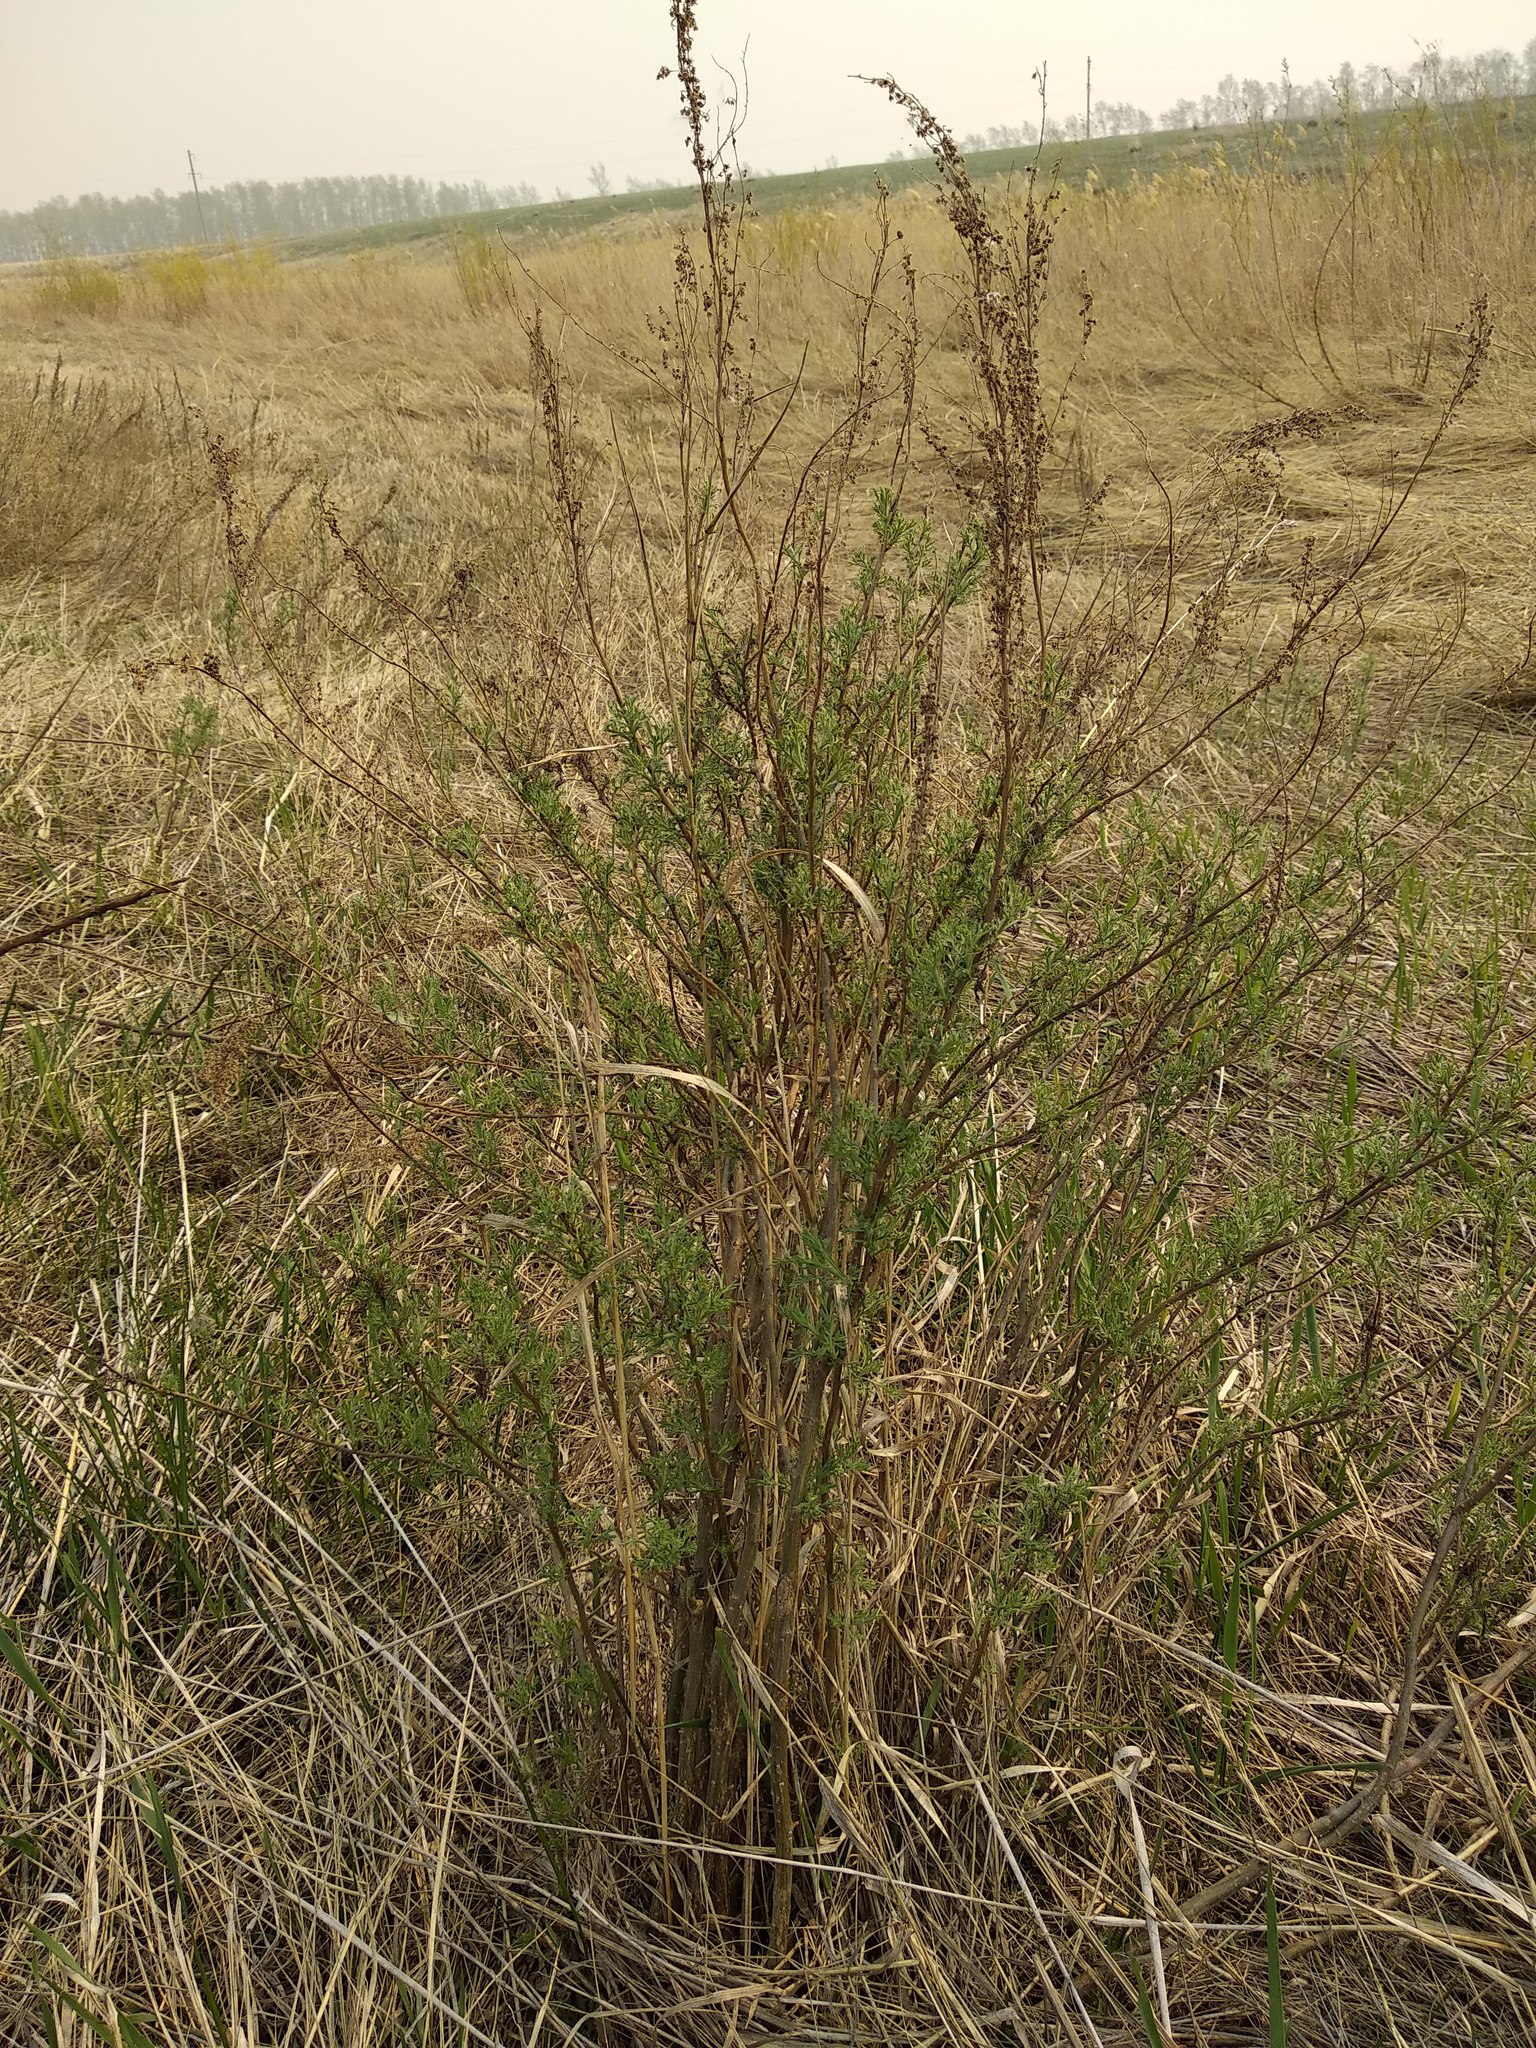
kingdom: Plantae
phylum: Tracheophyta
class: Magnoliopsida
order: Asterales
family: Asteraceae
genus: Artemisia
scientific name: Artemisia abrotanum
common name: Southernwood
